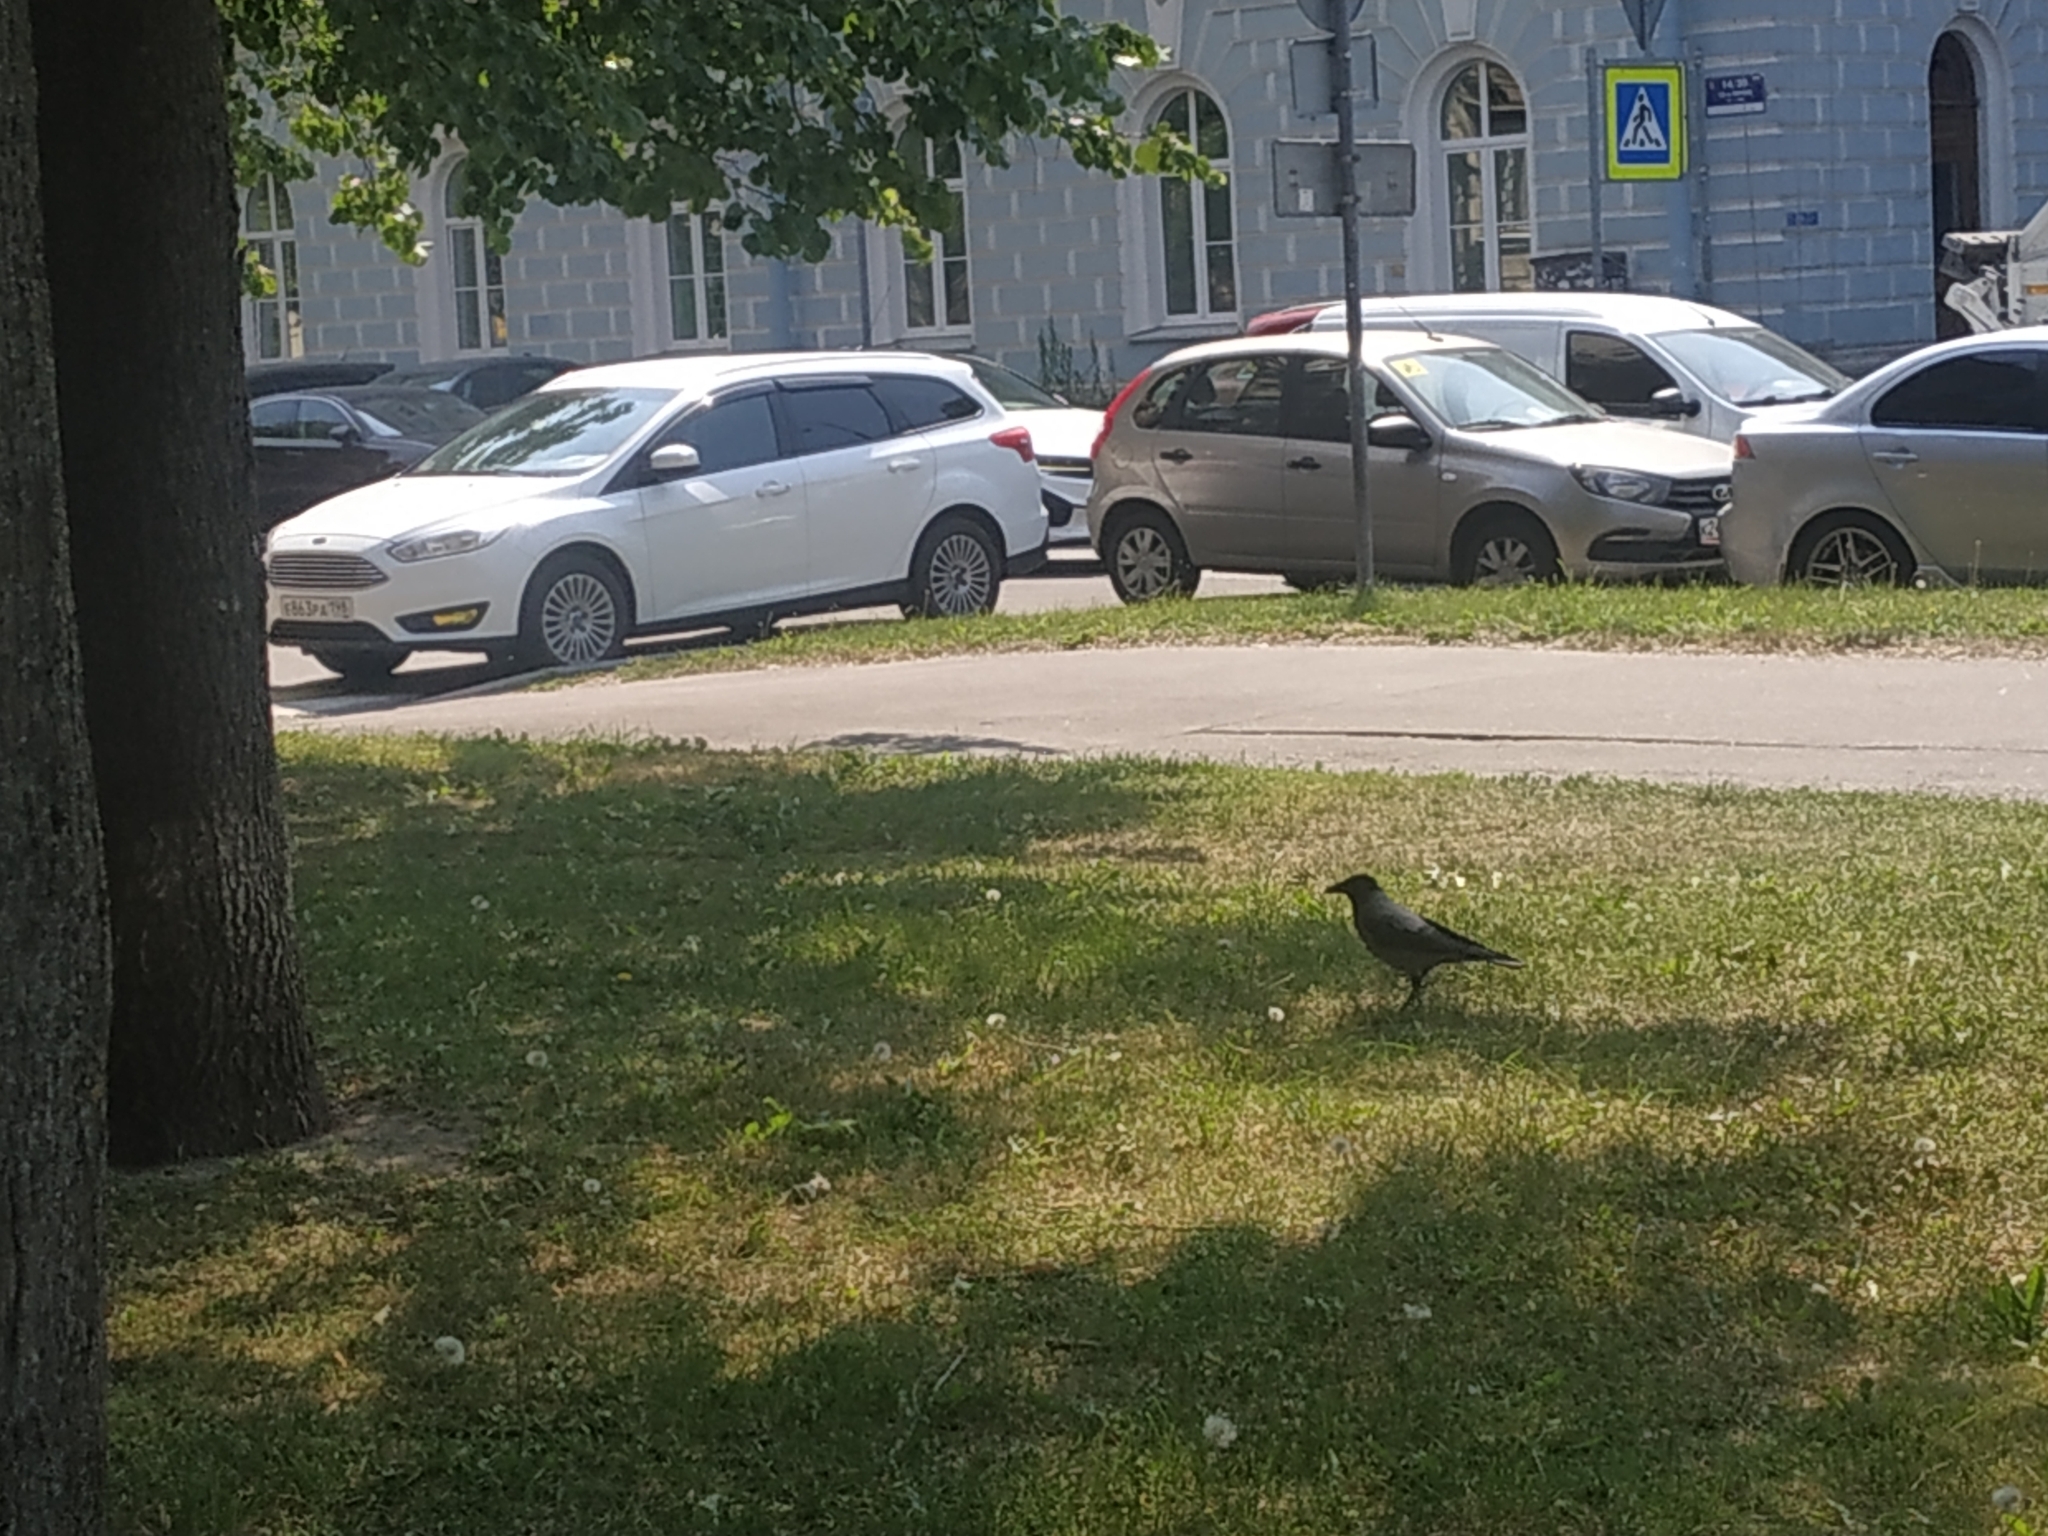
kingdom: Animalia
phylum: Chordata
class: Aves
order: Passeriformes
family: Corvidae
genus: Corvus
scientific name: Corvus cornix
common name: Hooded crow
